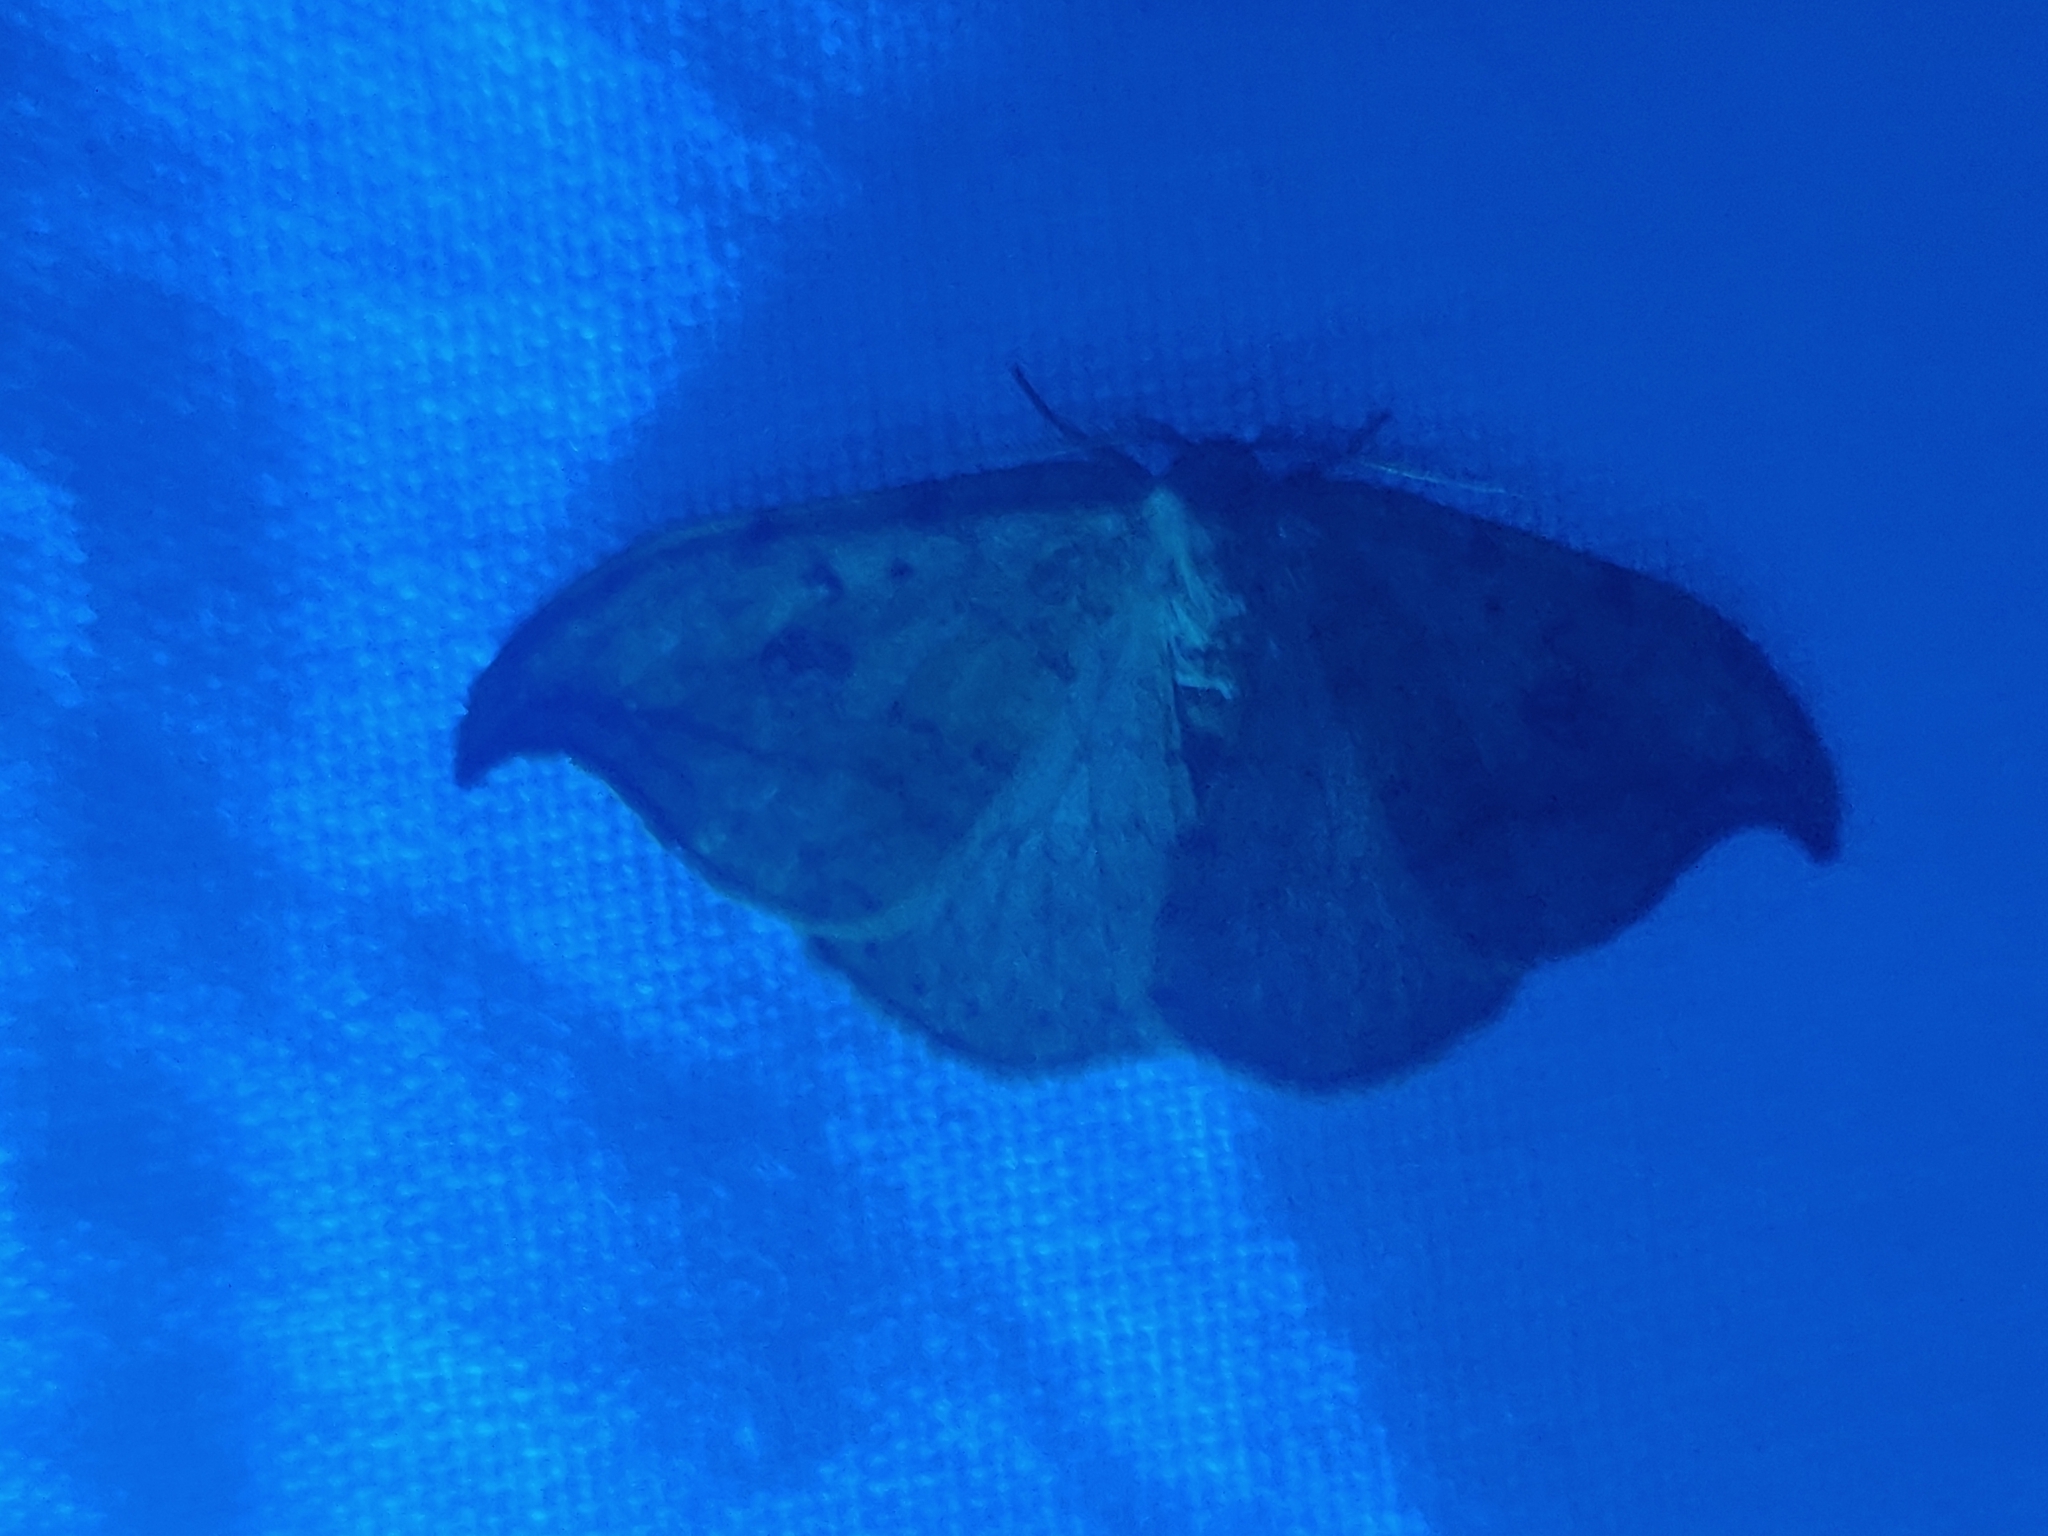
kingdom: Animalia
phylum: Arthropoda
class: Insecta
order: Lepidoptera
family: Drepanidae
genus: Drepana
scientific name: Drepana falcataria
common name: Pebble hook-tip
